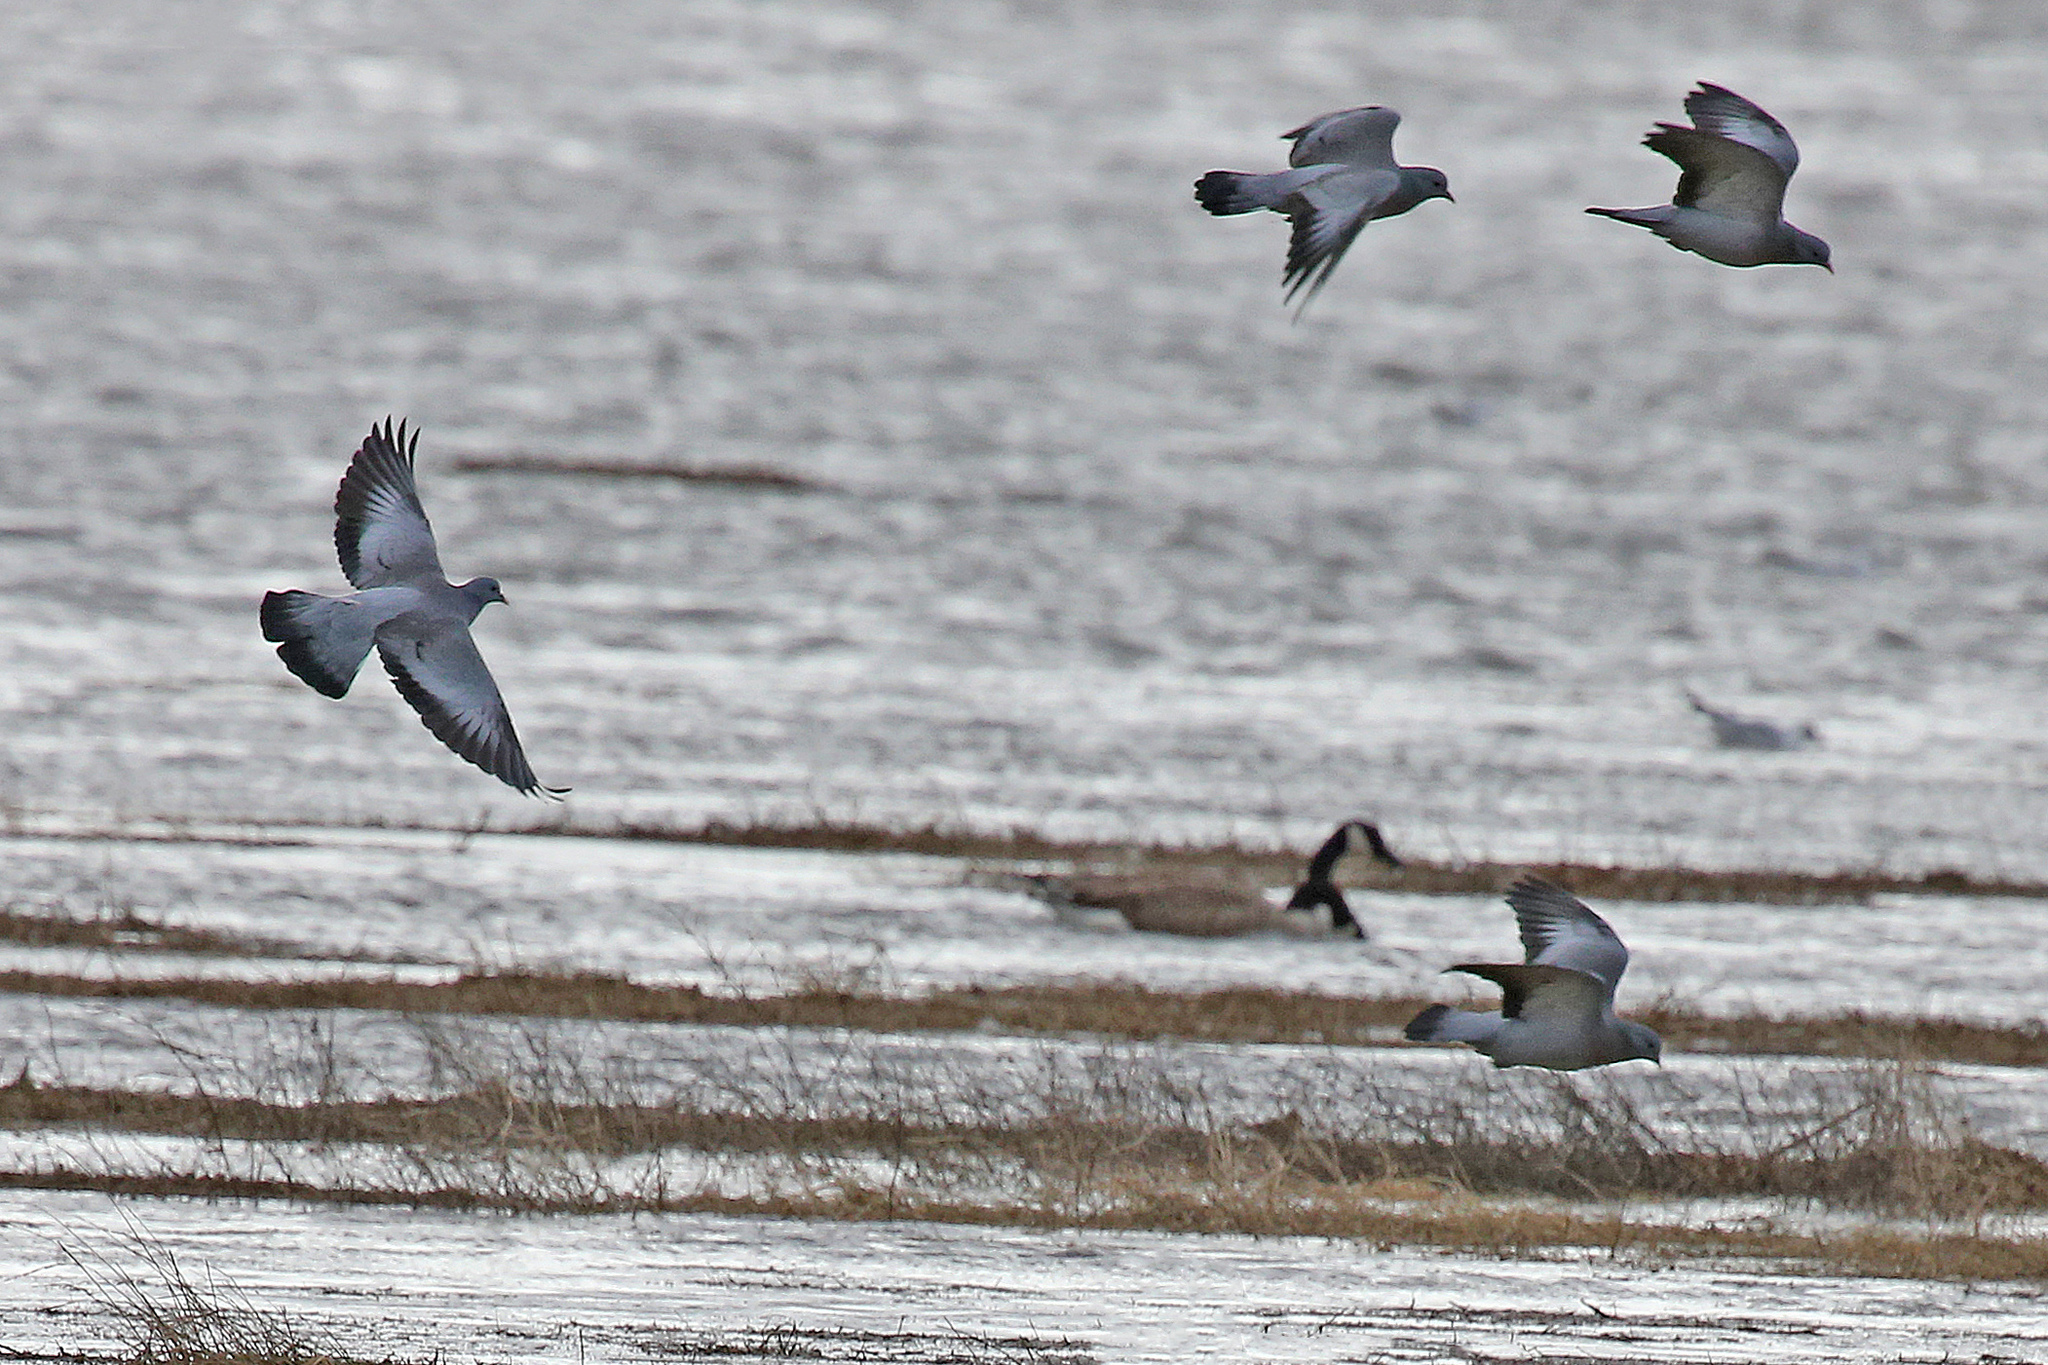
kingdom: Animalia
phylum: Chordata
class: Aves
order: Columbiformes
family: Columbidae
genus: Columba
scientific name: Columba oenas
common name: Stock dove
